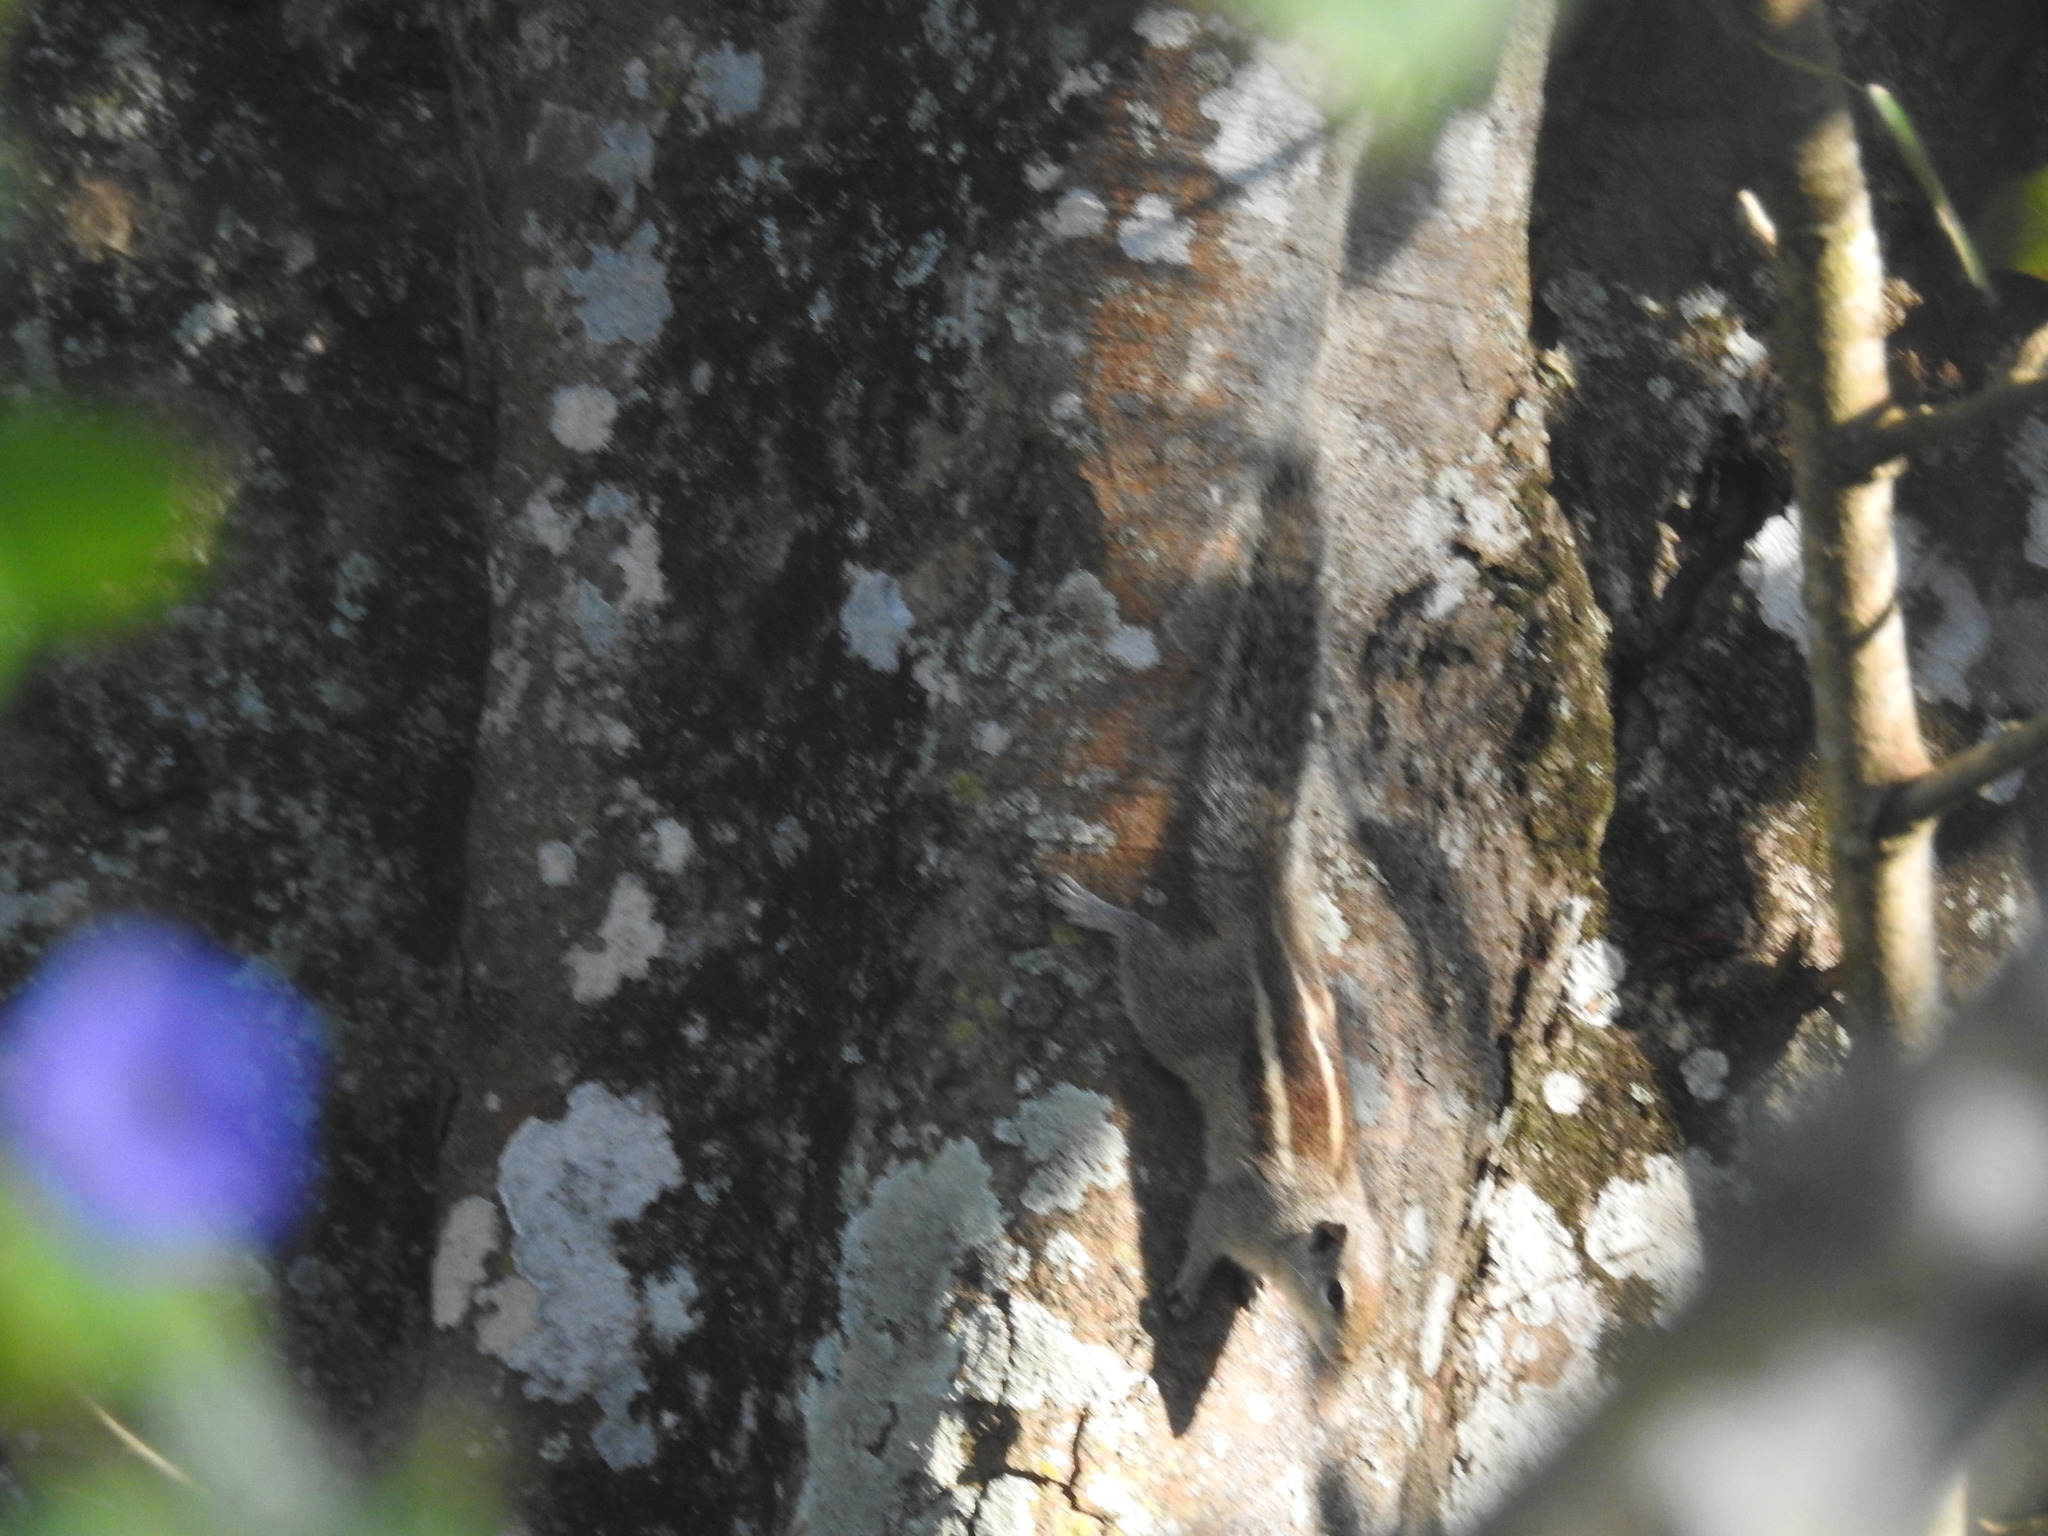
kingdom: Animalia
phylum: Chordata
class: Mammalia
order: Rodentia
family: Sciuridae
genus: Funambulus
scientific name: Funambulus palmarum
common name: Indian palm squirrel
